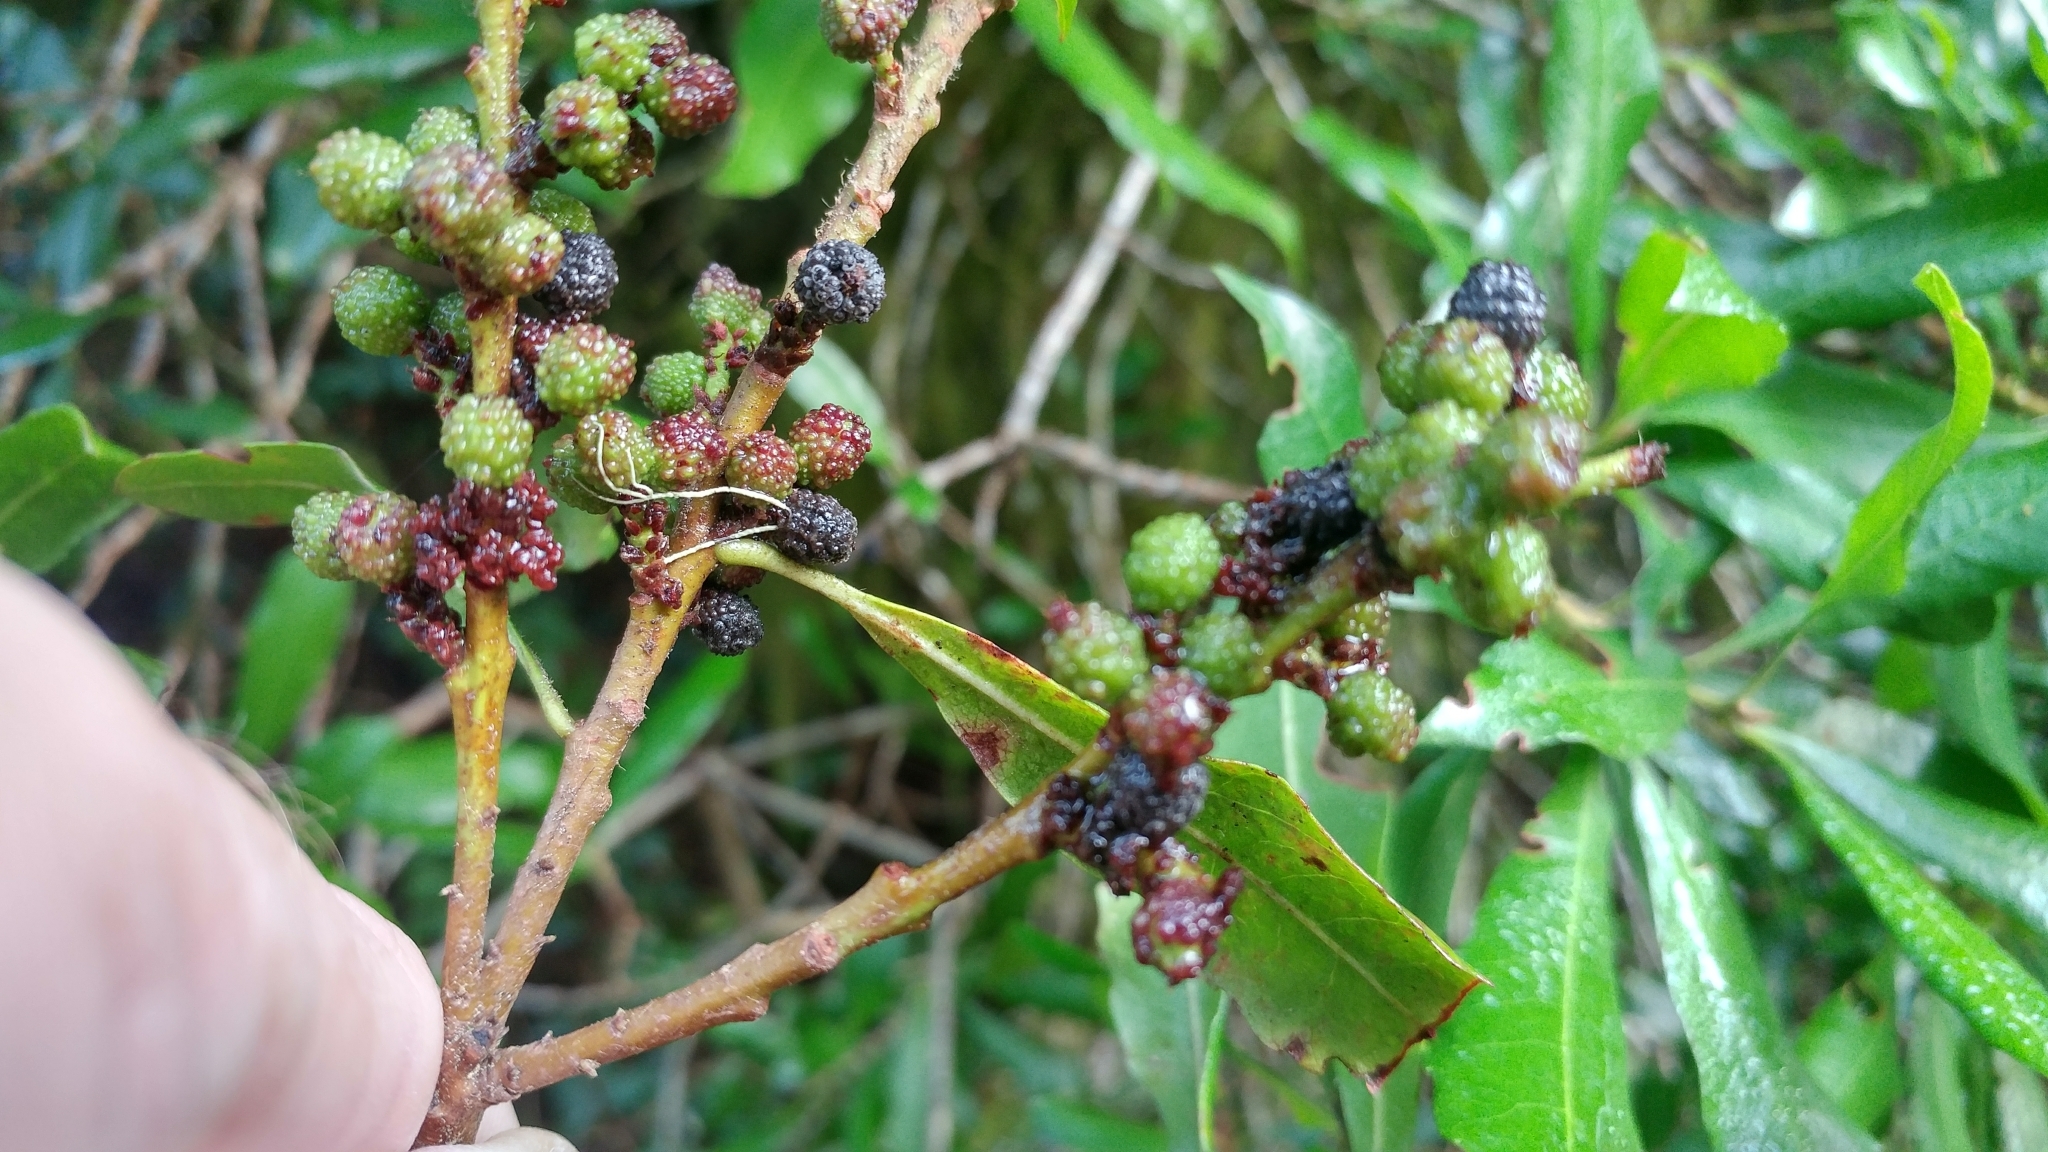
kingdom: Plantae
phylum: Tracheophyta
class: Magnoliopsida
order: Fagales
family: Myricaceae
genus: Morella
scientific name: Morella californica
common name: California wax-myrtle
